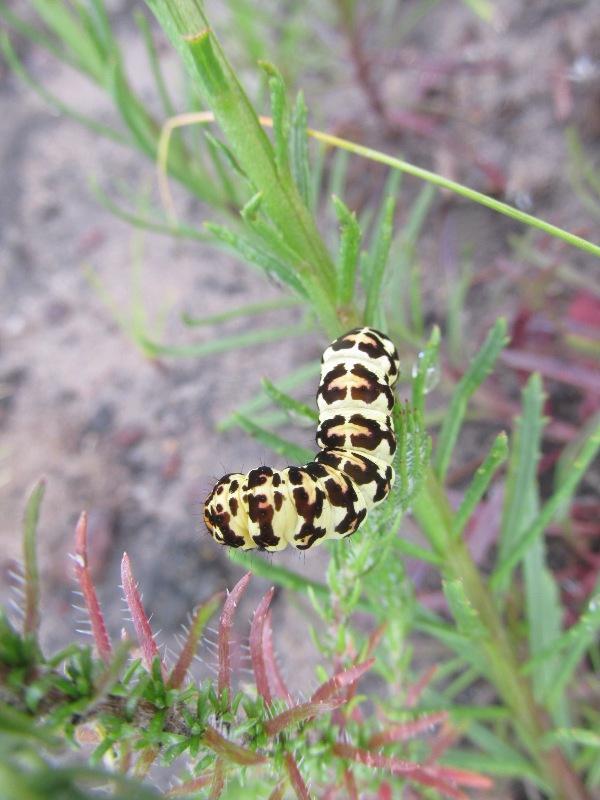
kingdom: Animalia
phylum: Arthropoda
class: Insecta
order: Lepidoptera
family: Noctuidae
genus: Diaphone
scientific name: Diaphone eumela
